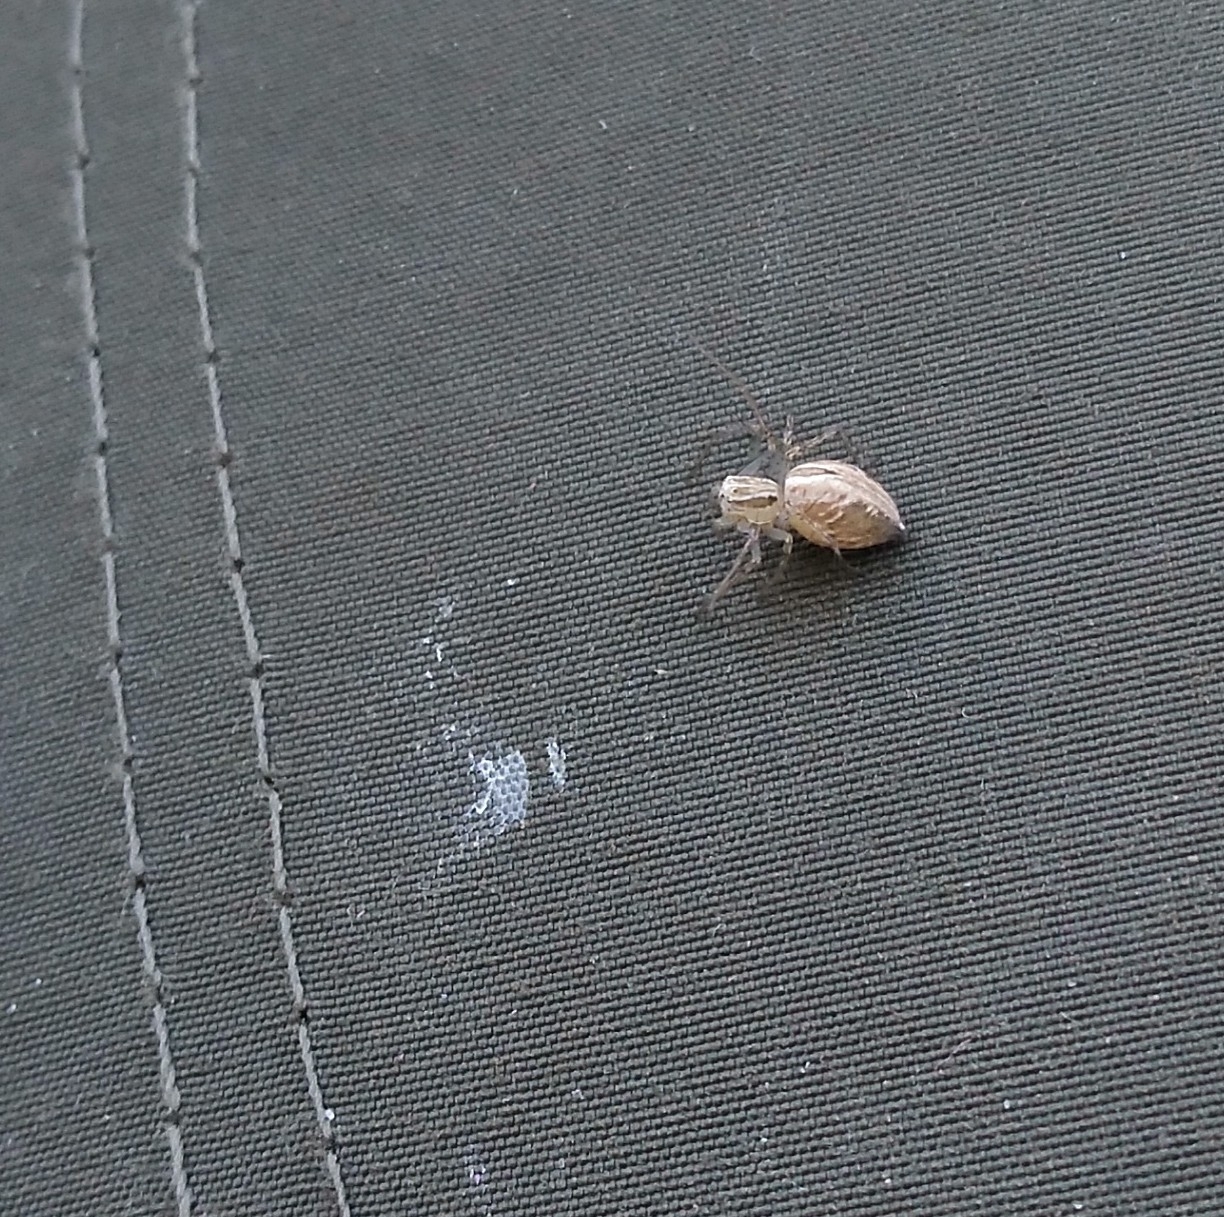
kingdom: Animalia
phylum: Arthropoda
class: Arachnida
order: Araneae
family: Oxyopidae
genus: Oxyopes
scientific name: Oxyopes salticus
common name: Lynx spiders
